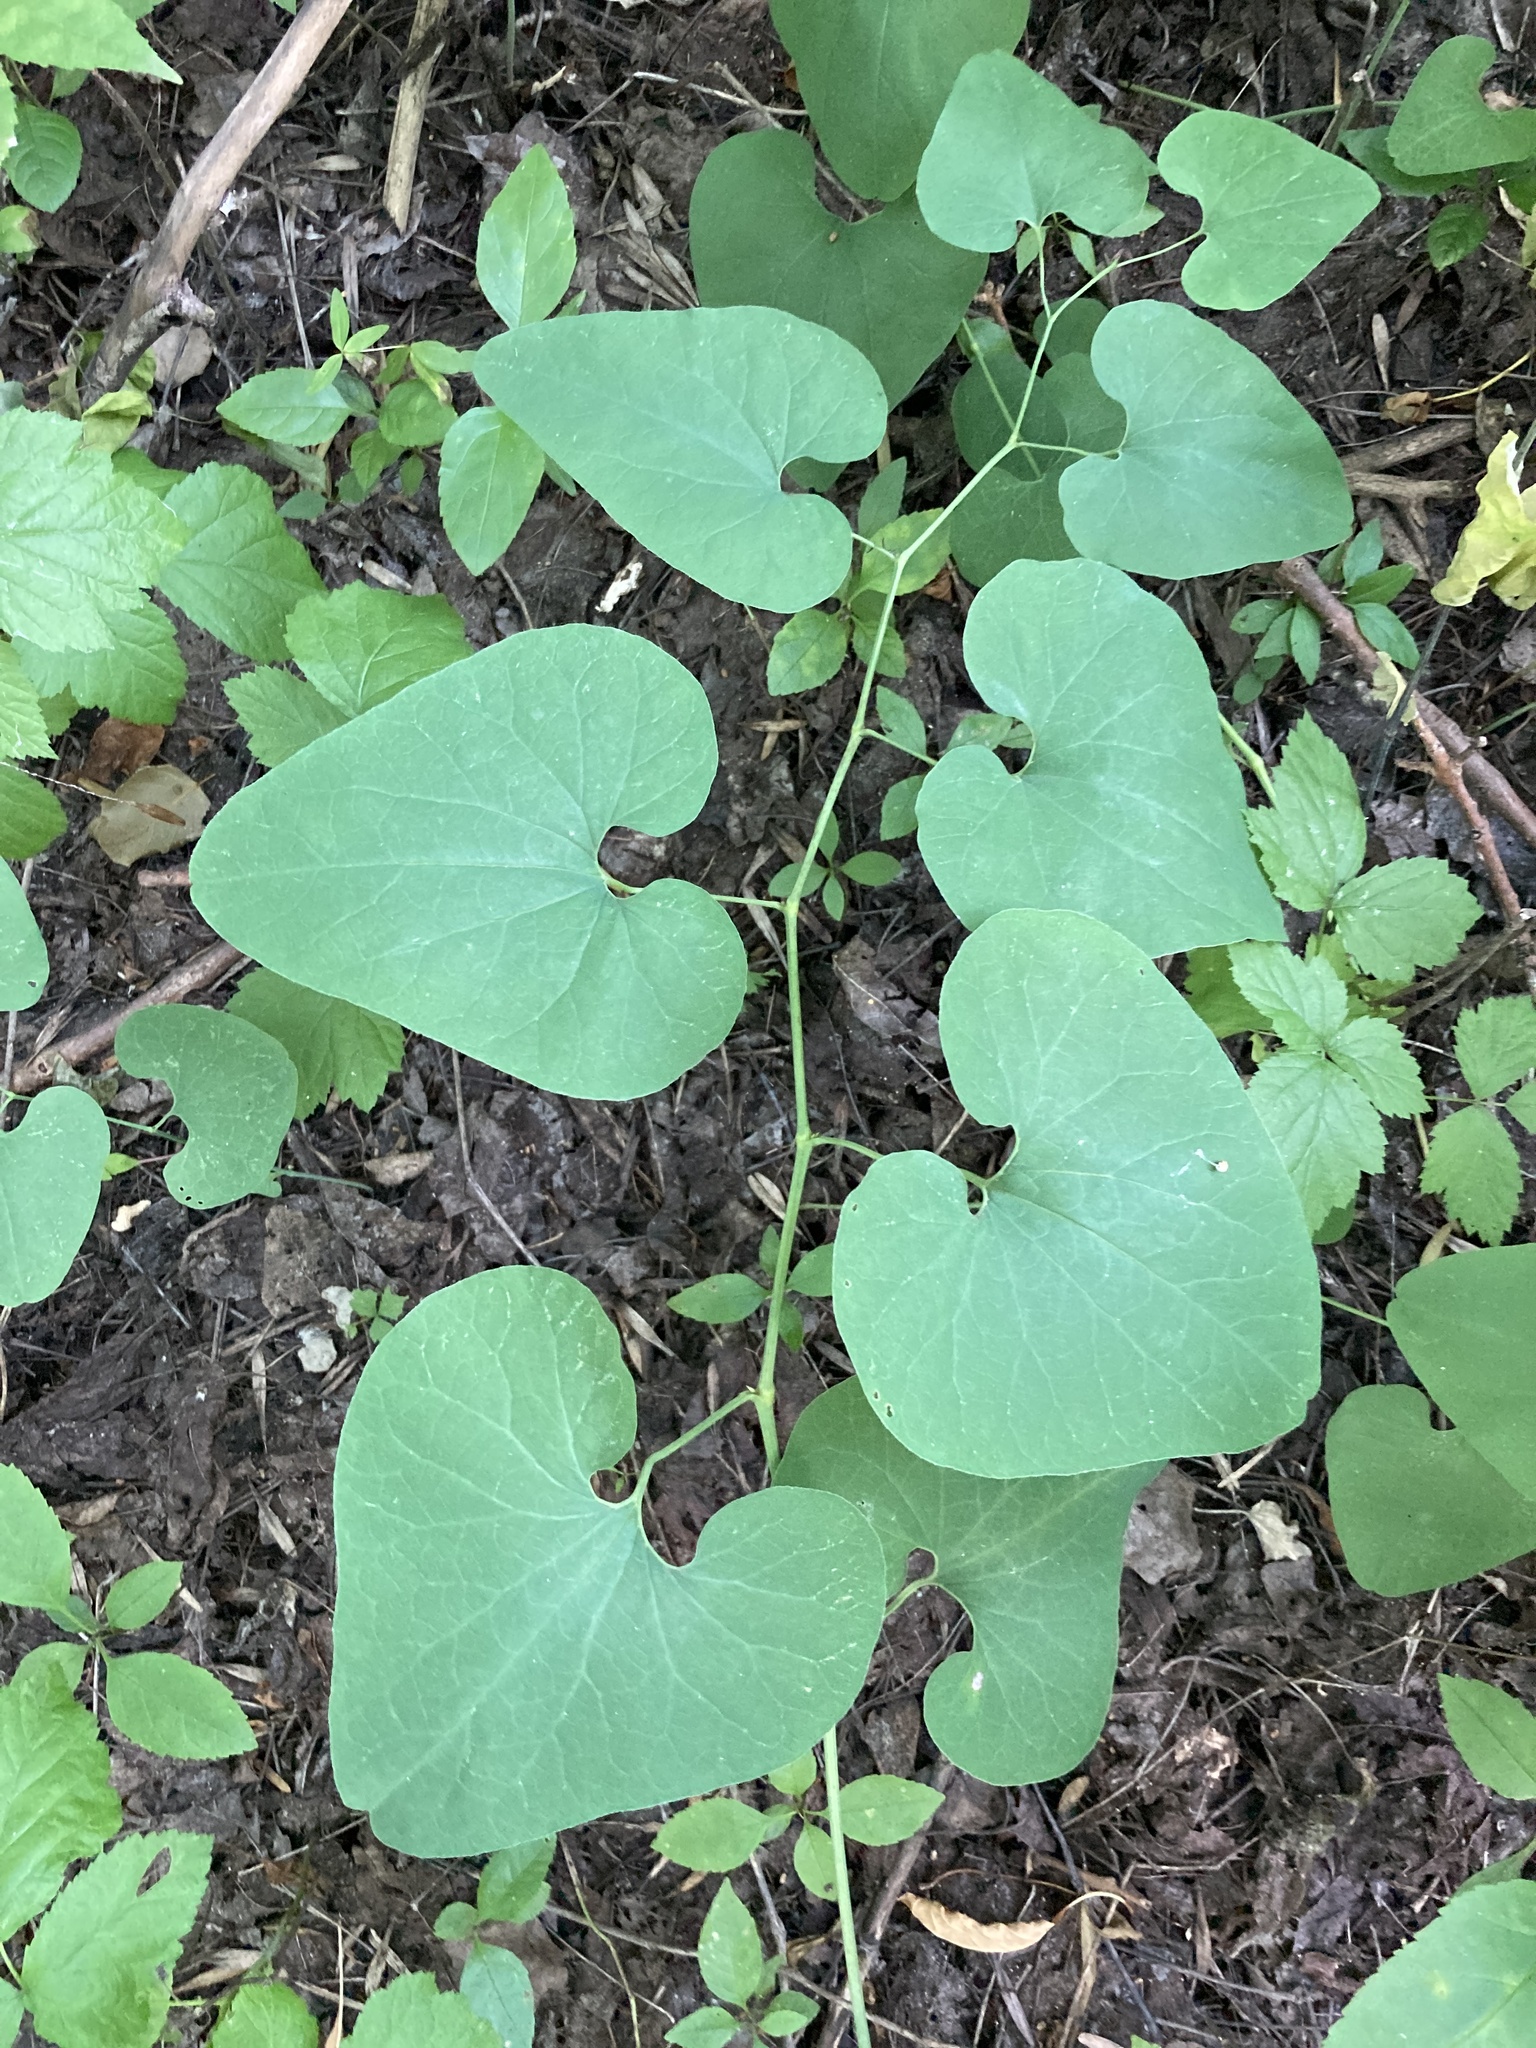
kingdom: Plantae
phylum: Tracheophyta
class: Magnoliopsida
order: Piperales
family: Aristolochiaceae
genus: Aristolochia
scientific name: Aristolochia clematitis
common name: Birthwort
